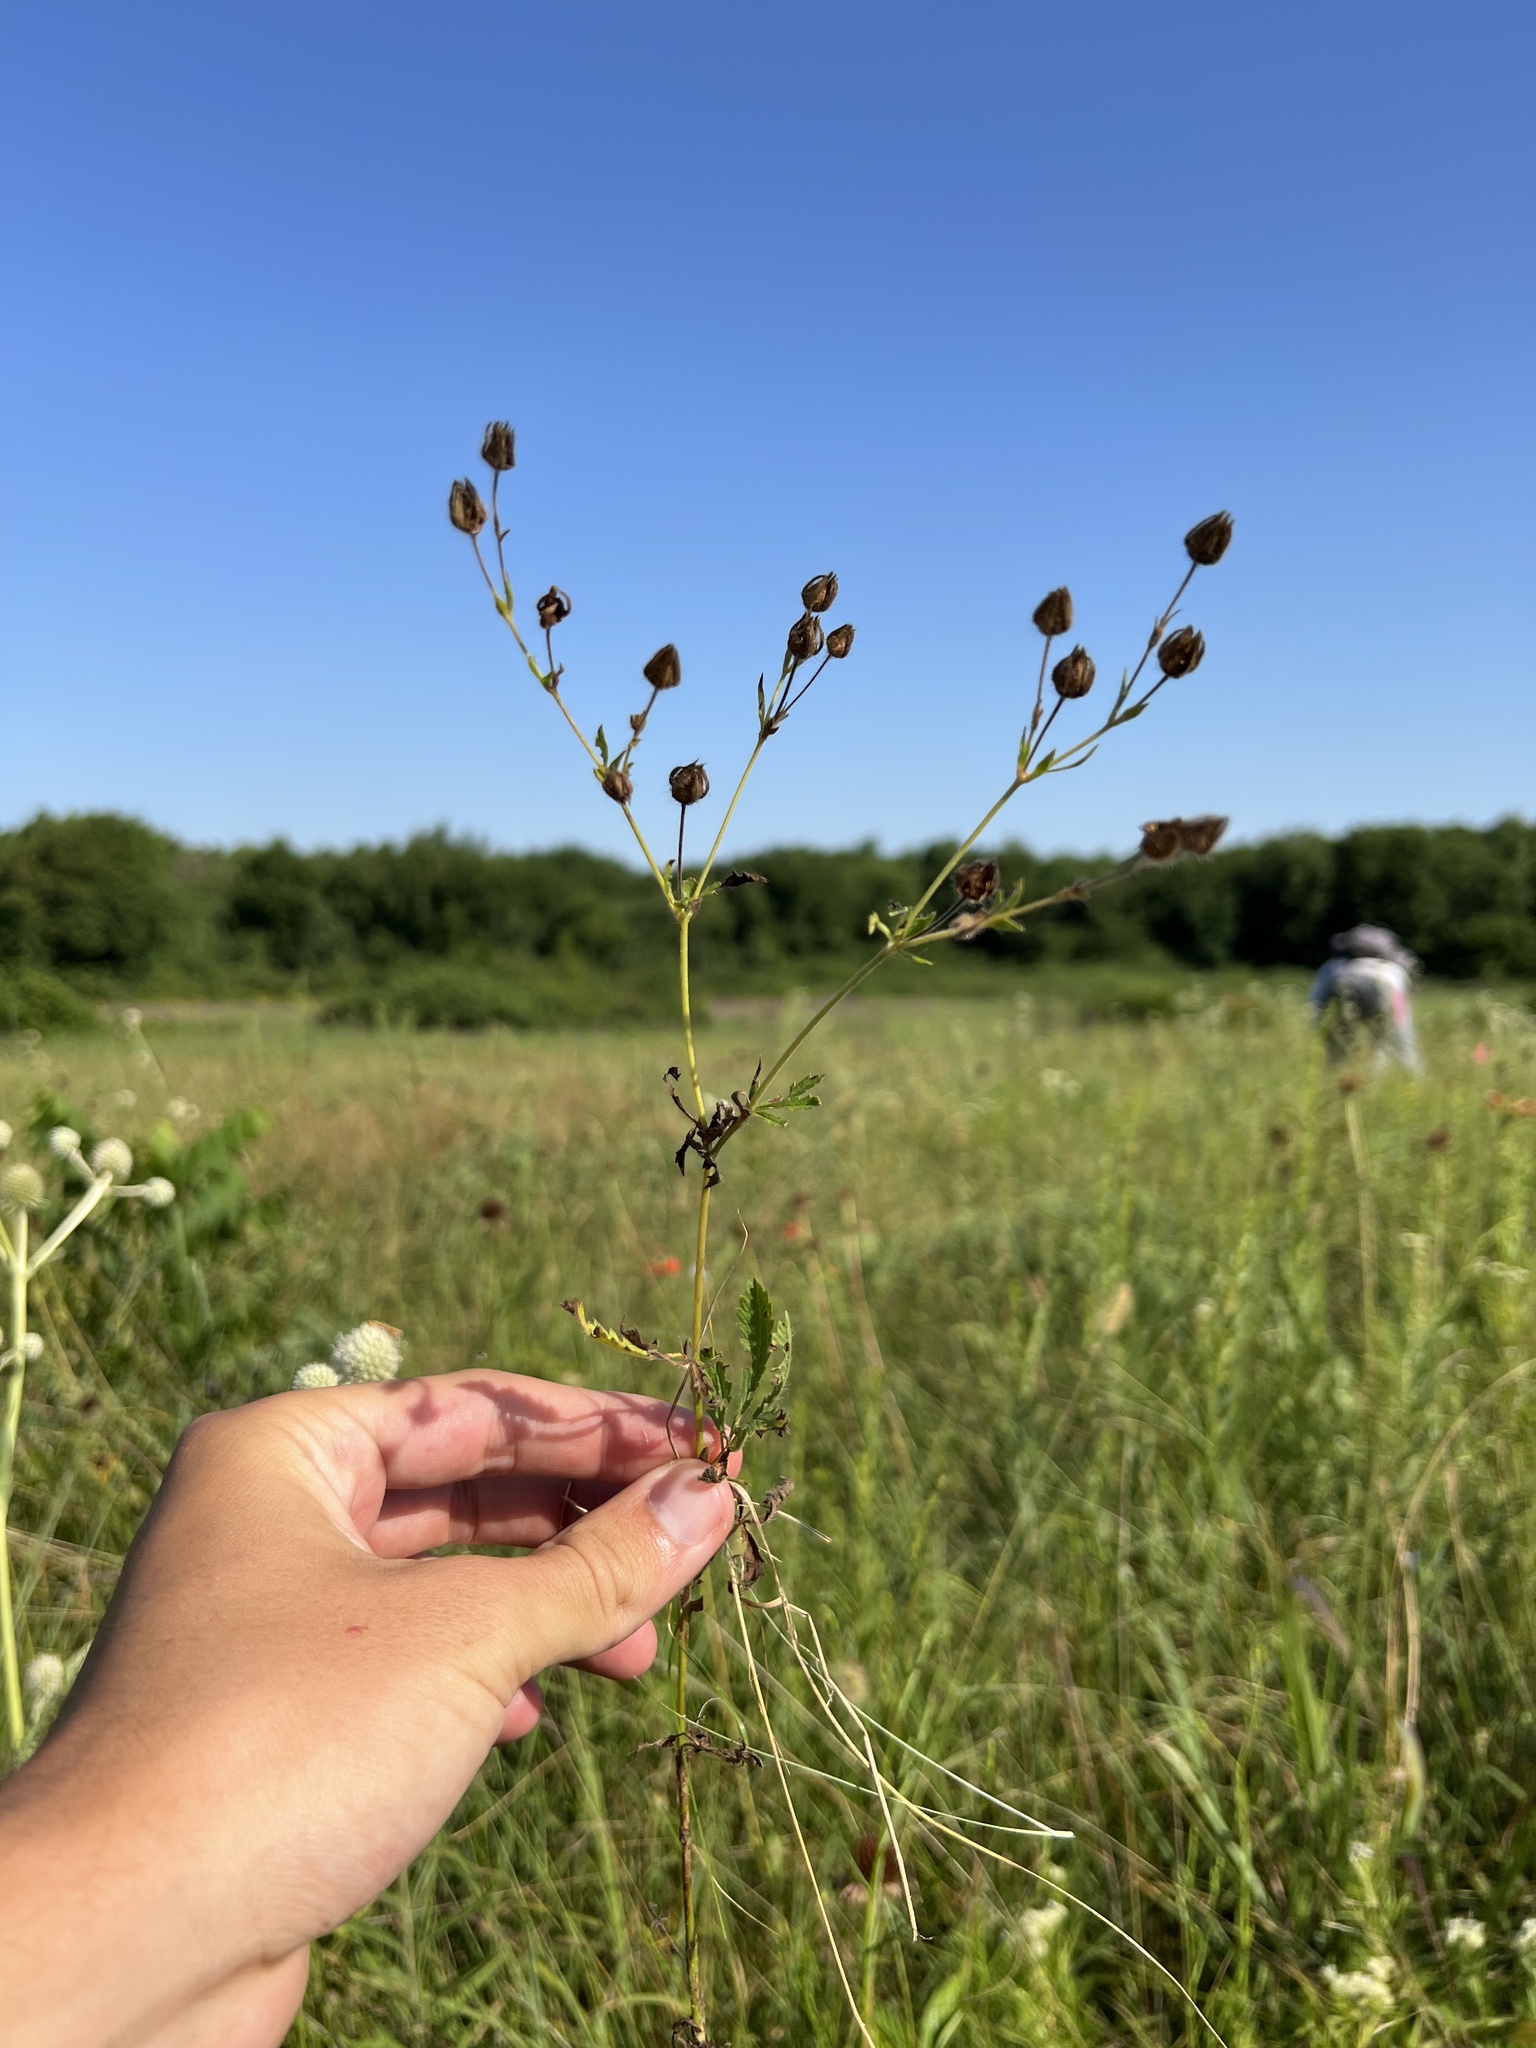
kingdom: Plantae
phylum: Tracheophyta
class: Magnoliopsida
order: Rosales
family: Rosaceae
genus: Potentilla
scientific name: Potentilla recta
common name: Sulphur cinquefoil
